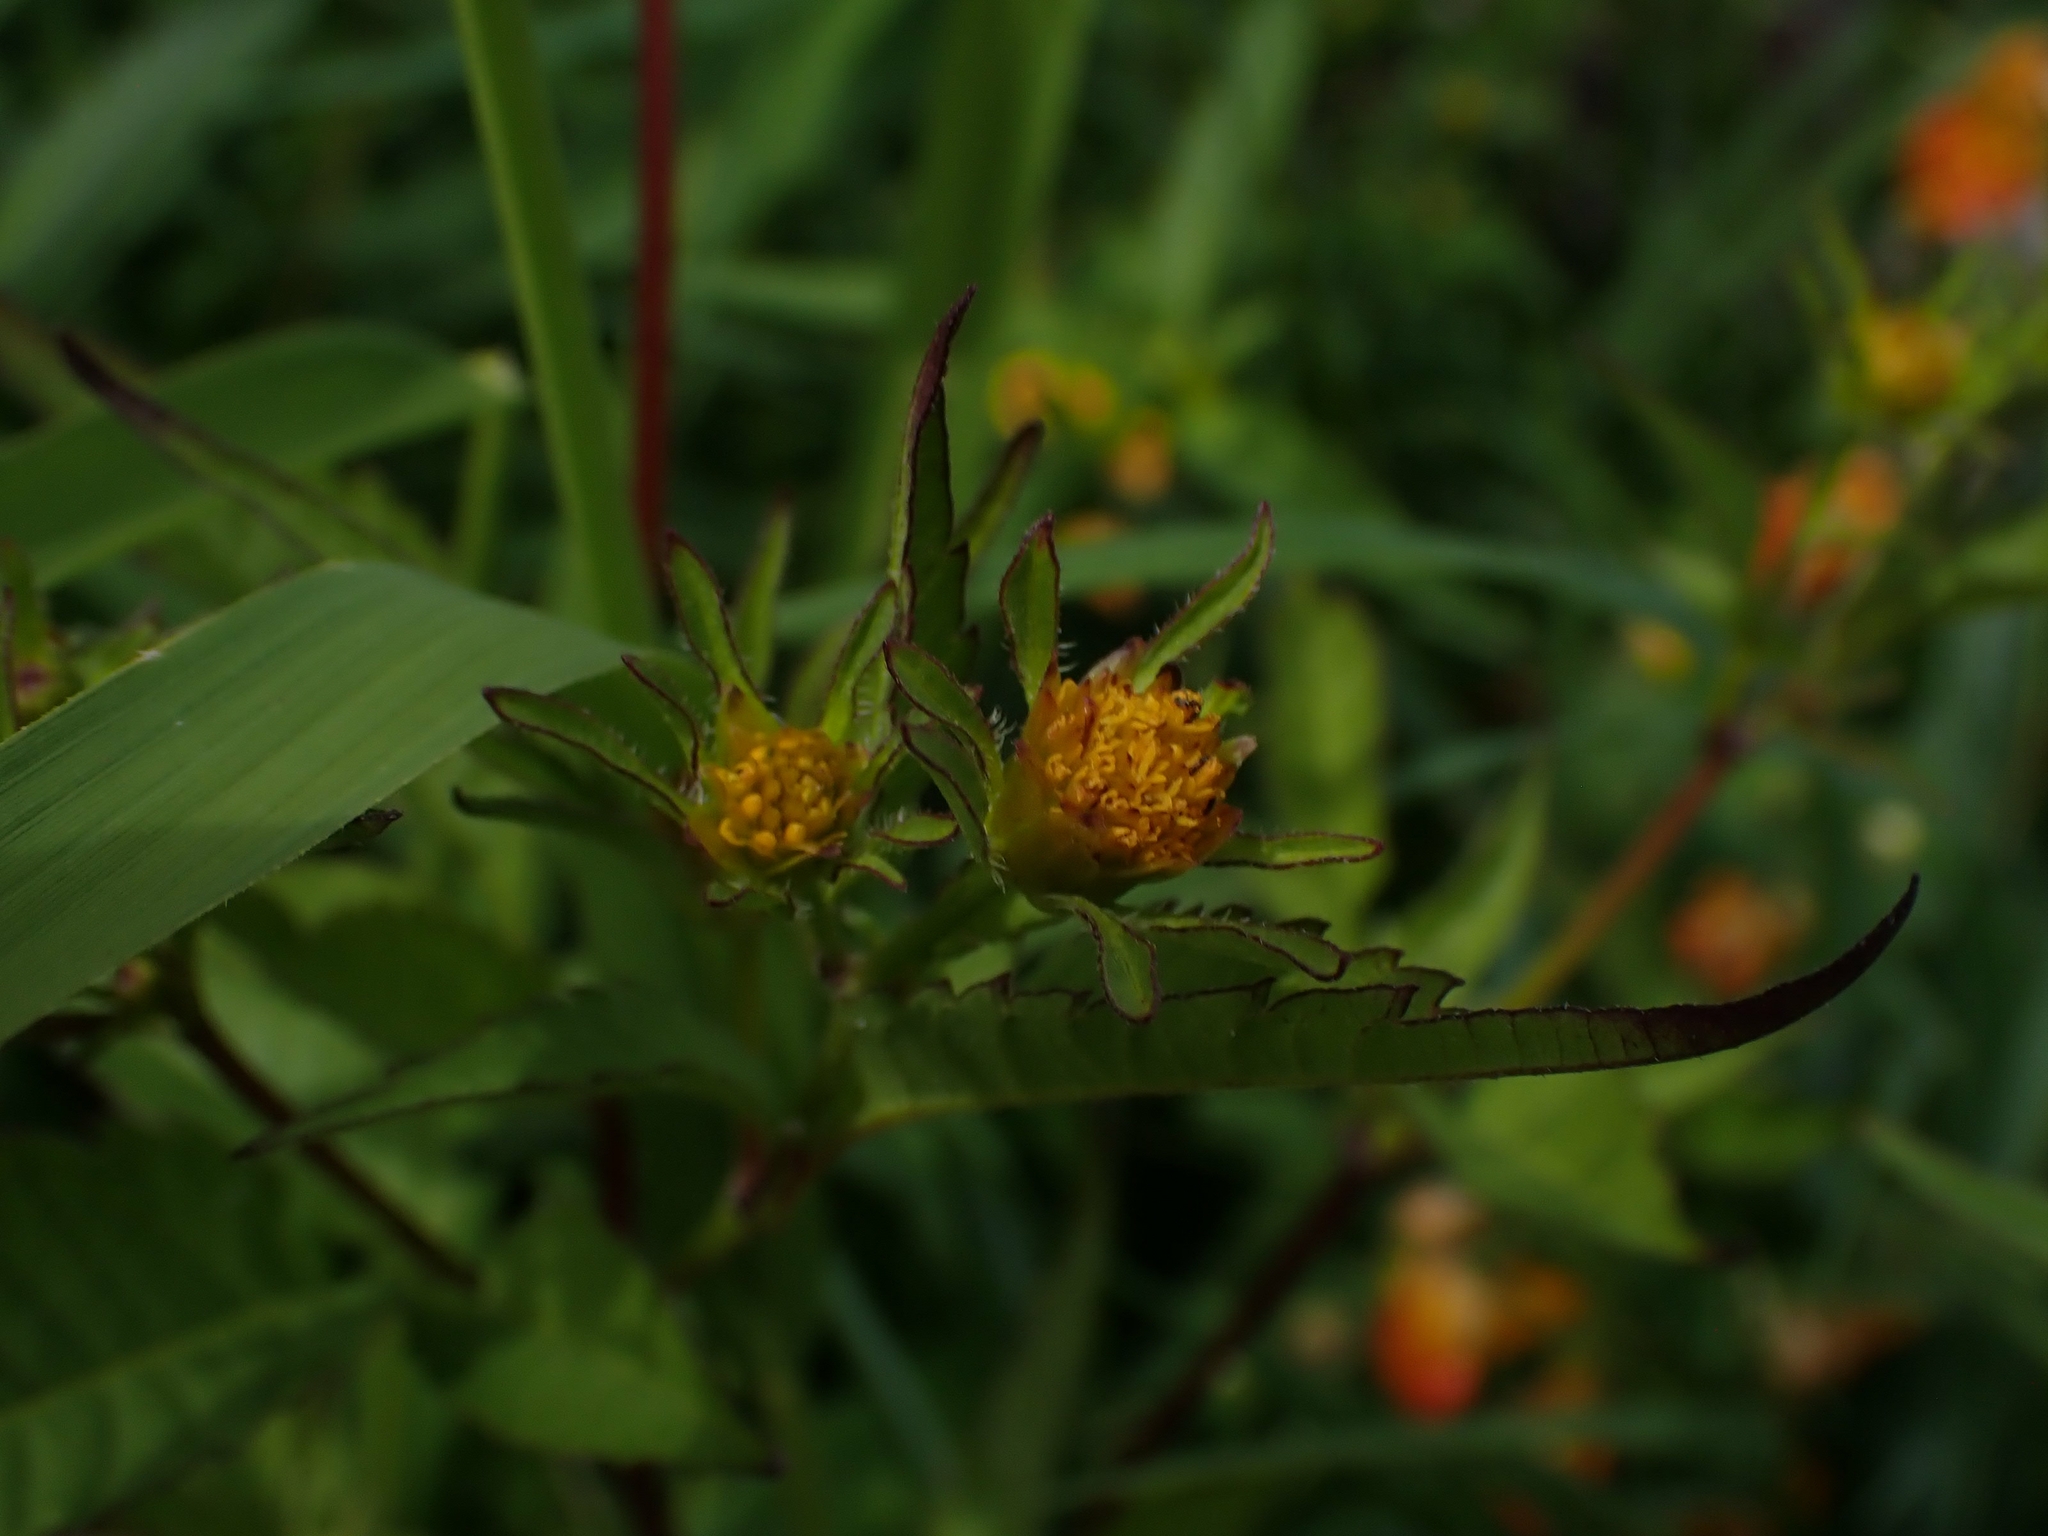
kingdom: Plantae
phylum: Tracheophyta
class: Magnoliopsida
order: Asterales
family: Asteraceae
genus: Bidens
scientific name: Bidens frondosa
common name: Beggarticks
